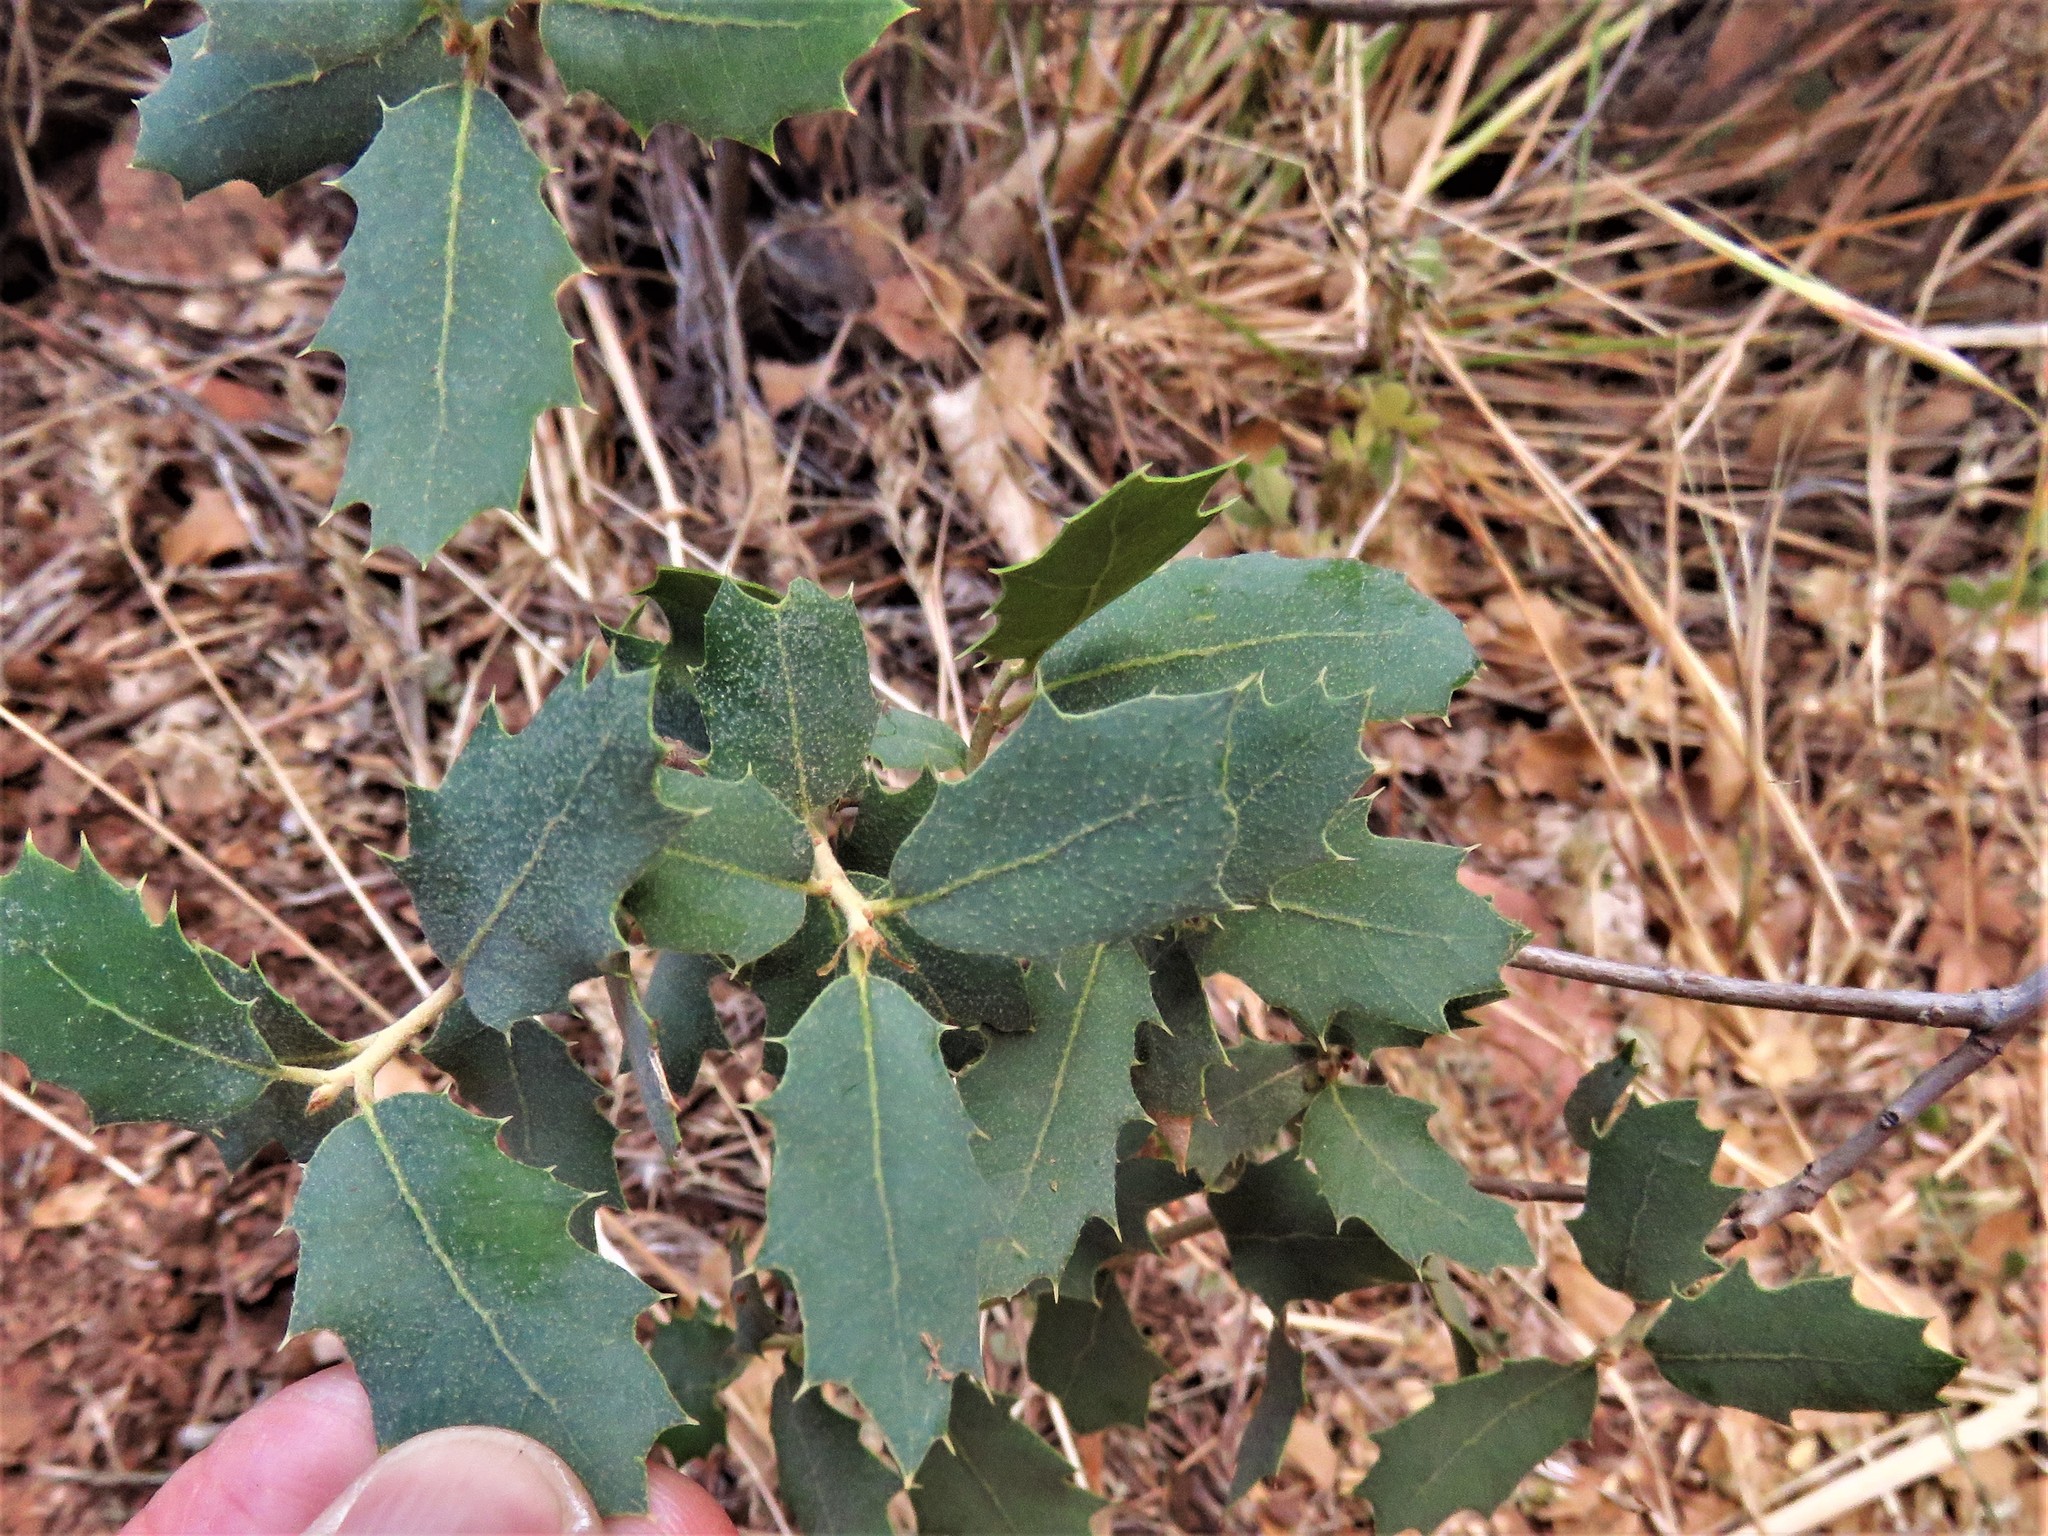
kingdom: Plantae
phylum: Tracheophyta
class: Magnoliopsida
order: Fagales
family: Fagaceae
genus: Quercus
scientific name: Quercus turbinella
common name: Sonoran scrub oak
